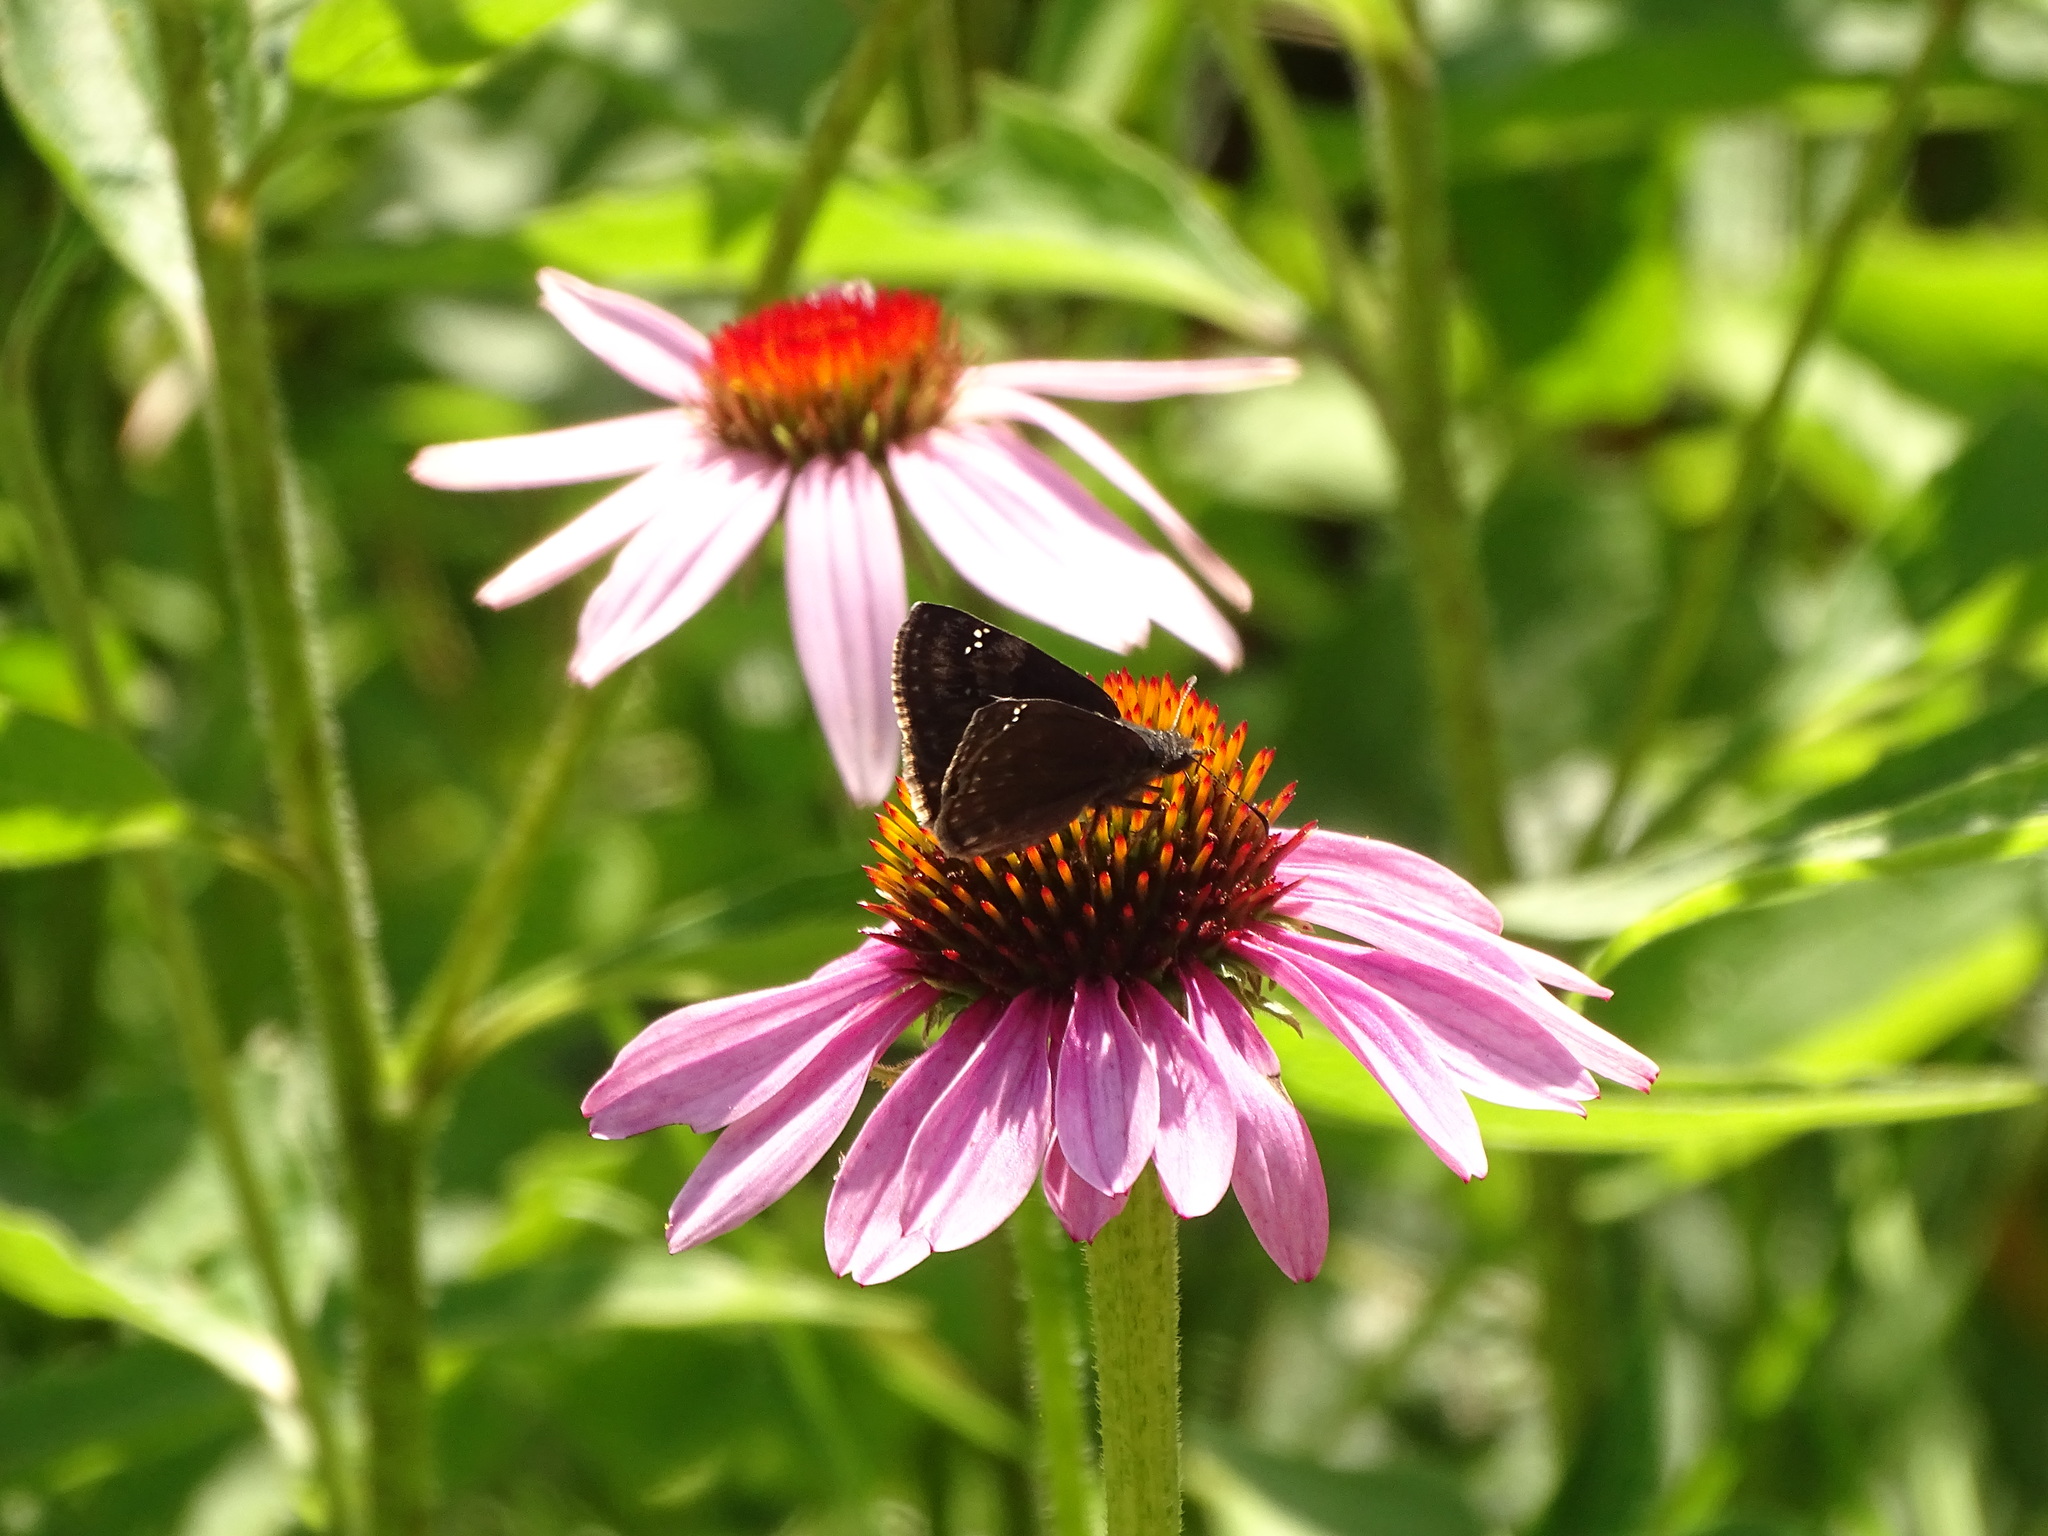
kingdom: Animalia
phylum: Arthropoda
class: Insecta
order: Lepidoptera
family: Hesperiidae
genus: Erynnis
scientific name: Erynnis baptisiae
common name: Wild indigo duskywing
